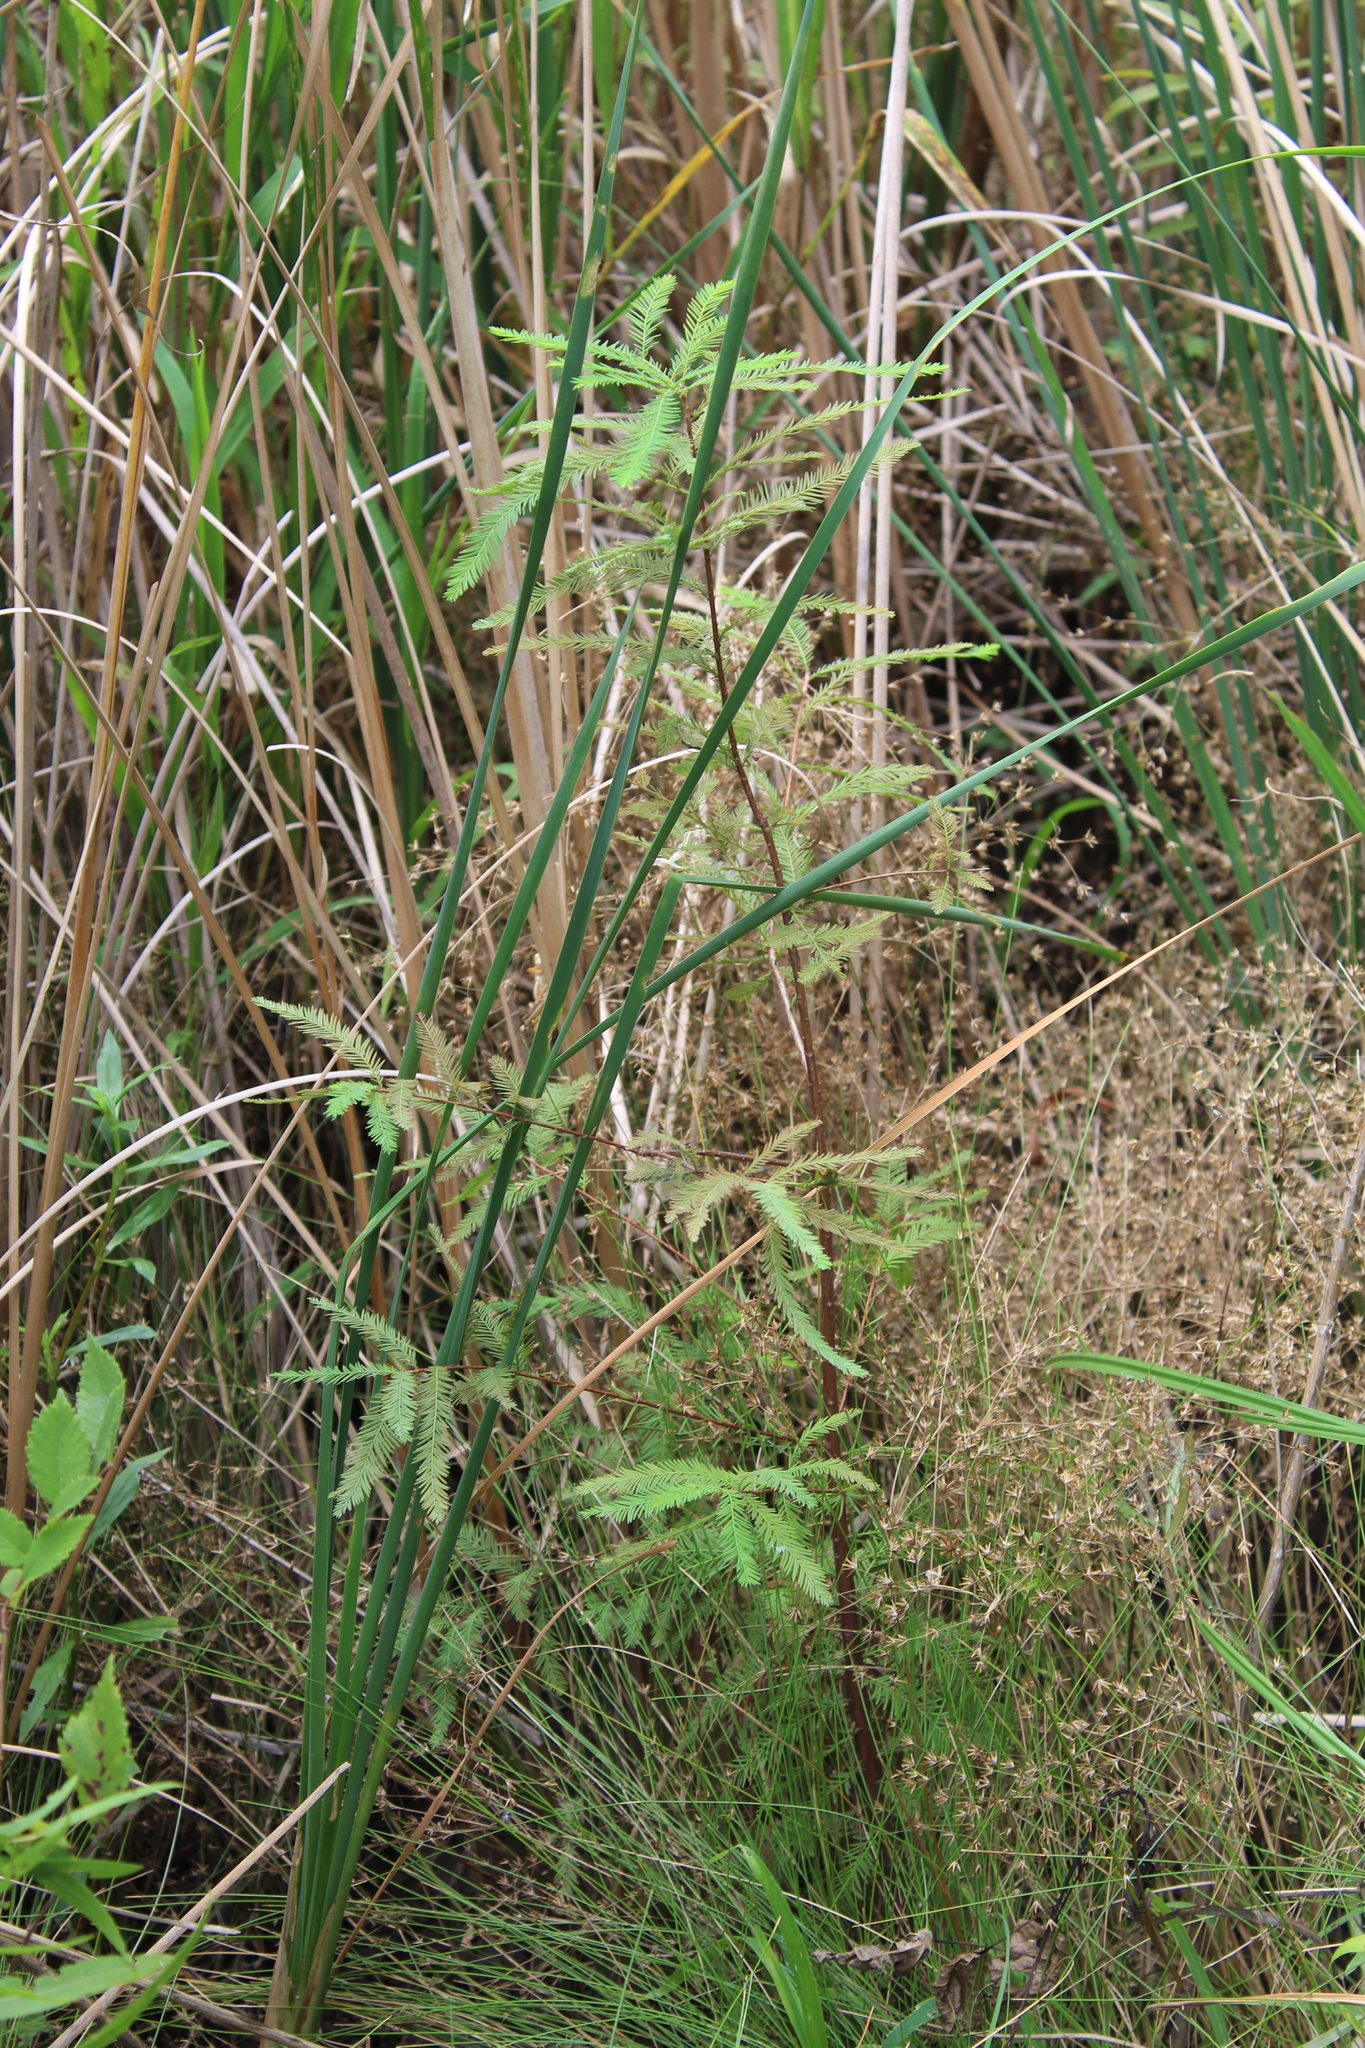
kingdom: Plantae
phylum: Tracheophyta
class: Pinopsida
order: Pinales
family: Cupressaceae
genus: Taxodium
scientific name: Taxodium distichum
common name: Bald cypress
